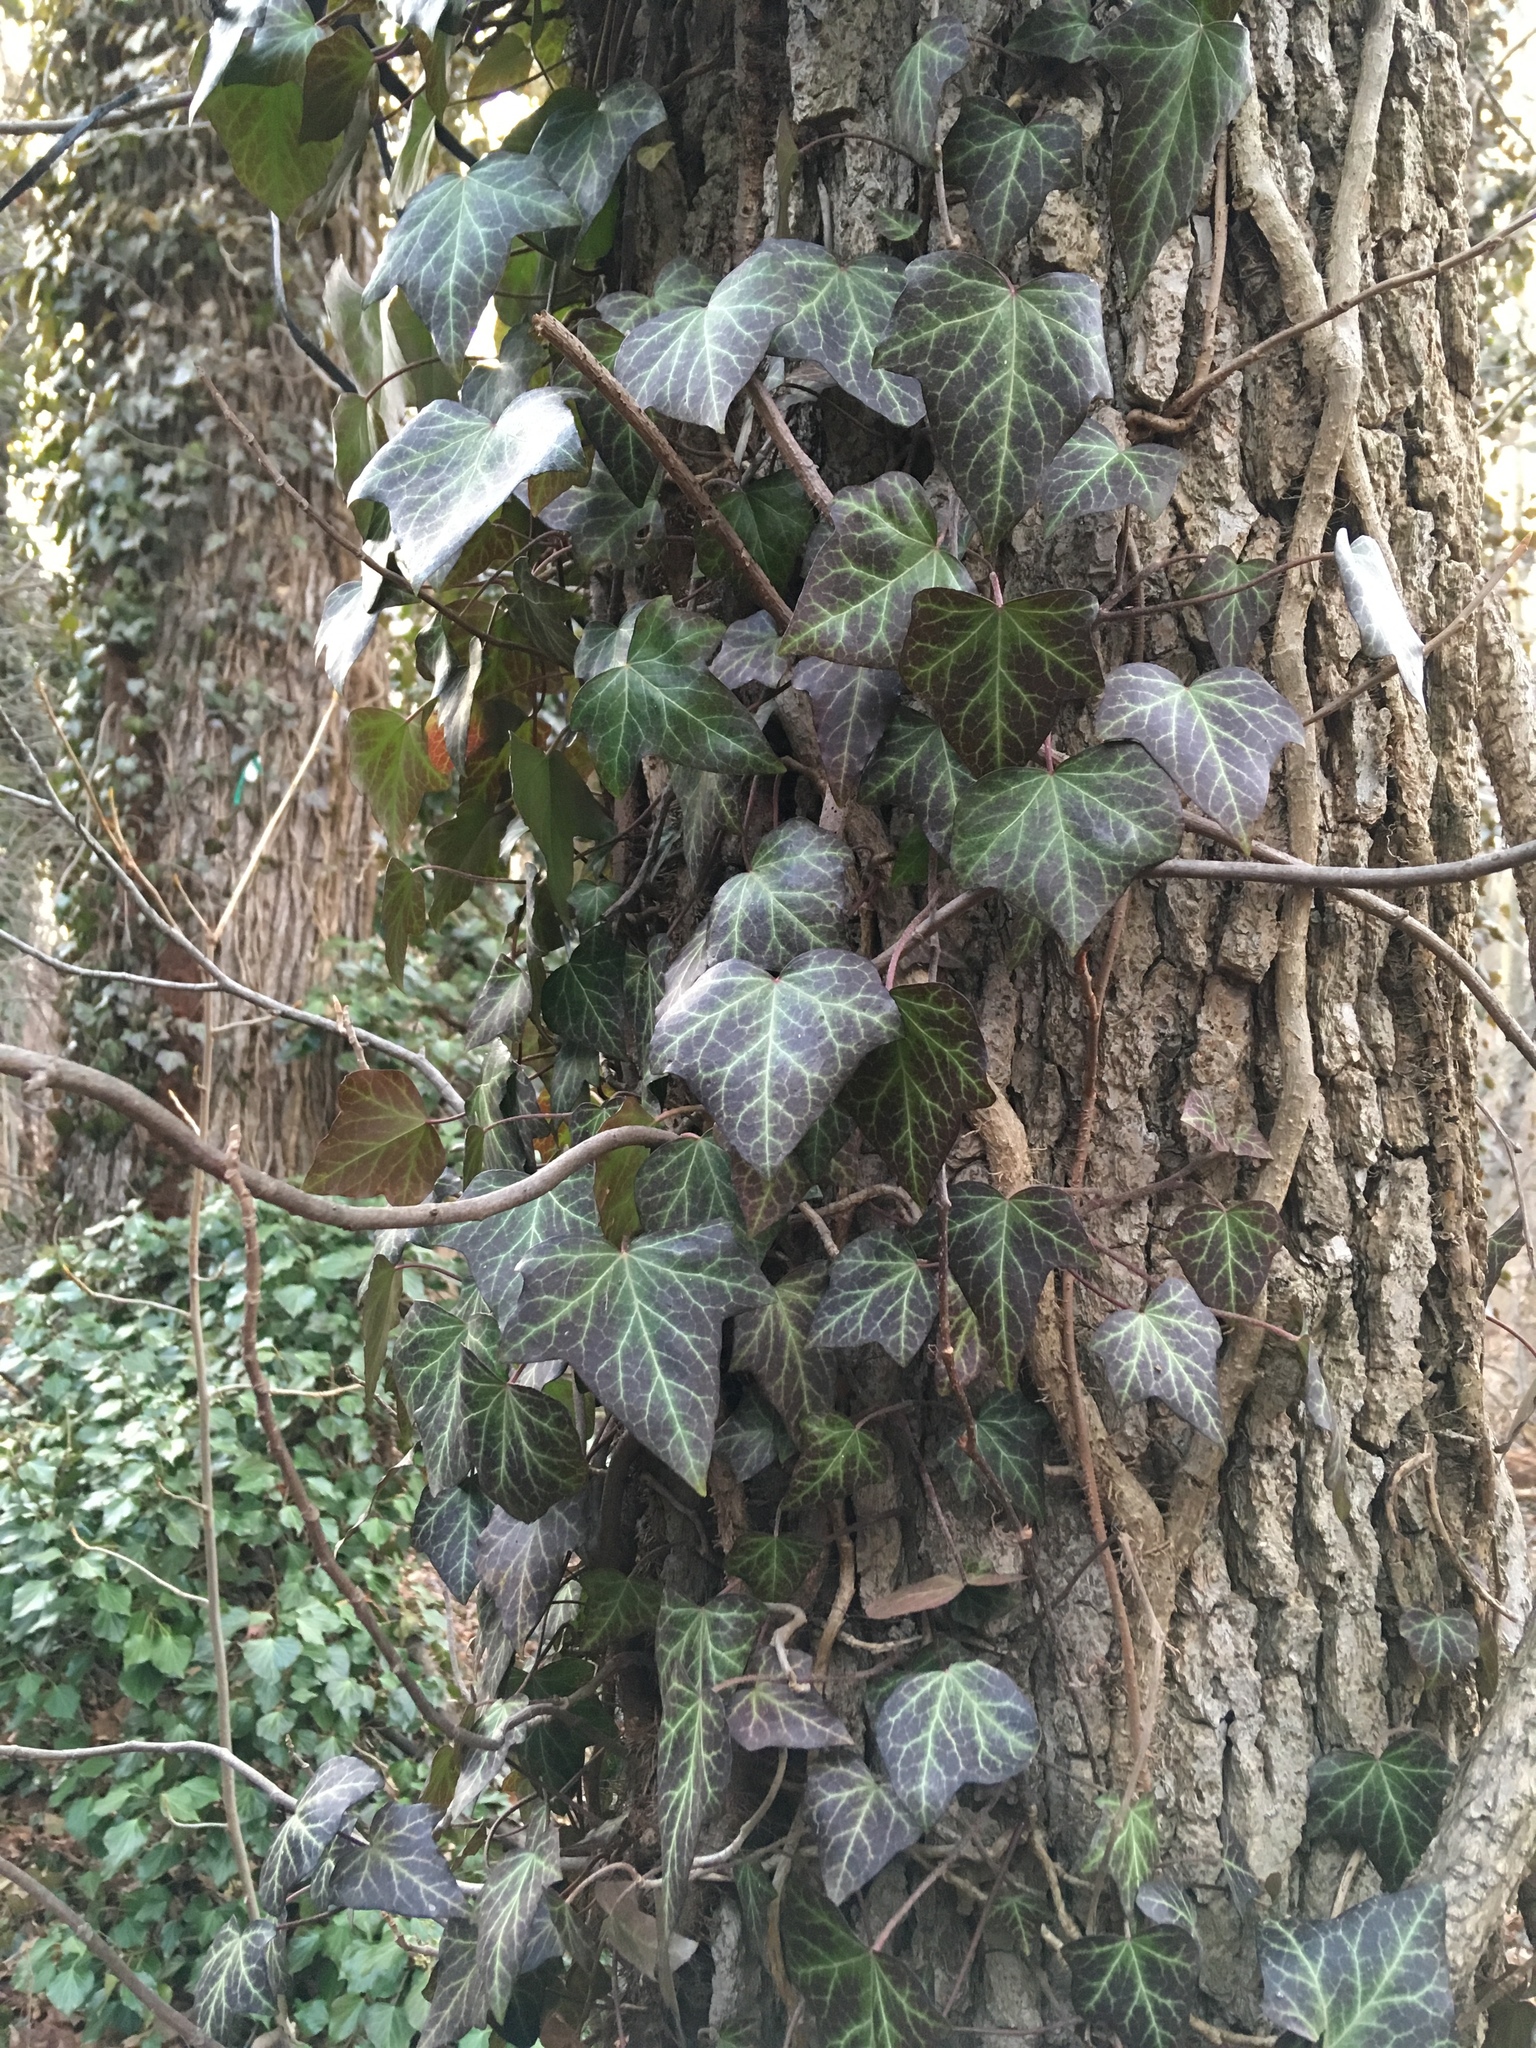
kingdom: Plantae
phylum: Tracheophyta
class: Magnoliopsida
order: Apiales
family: Araliaceae
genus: Hedera
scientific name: Hedera helix
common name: Ivy
